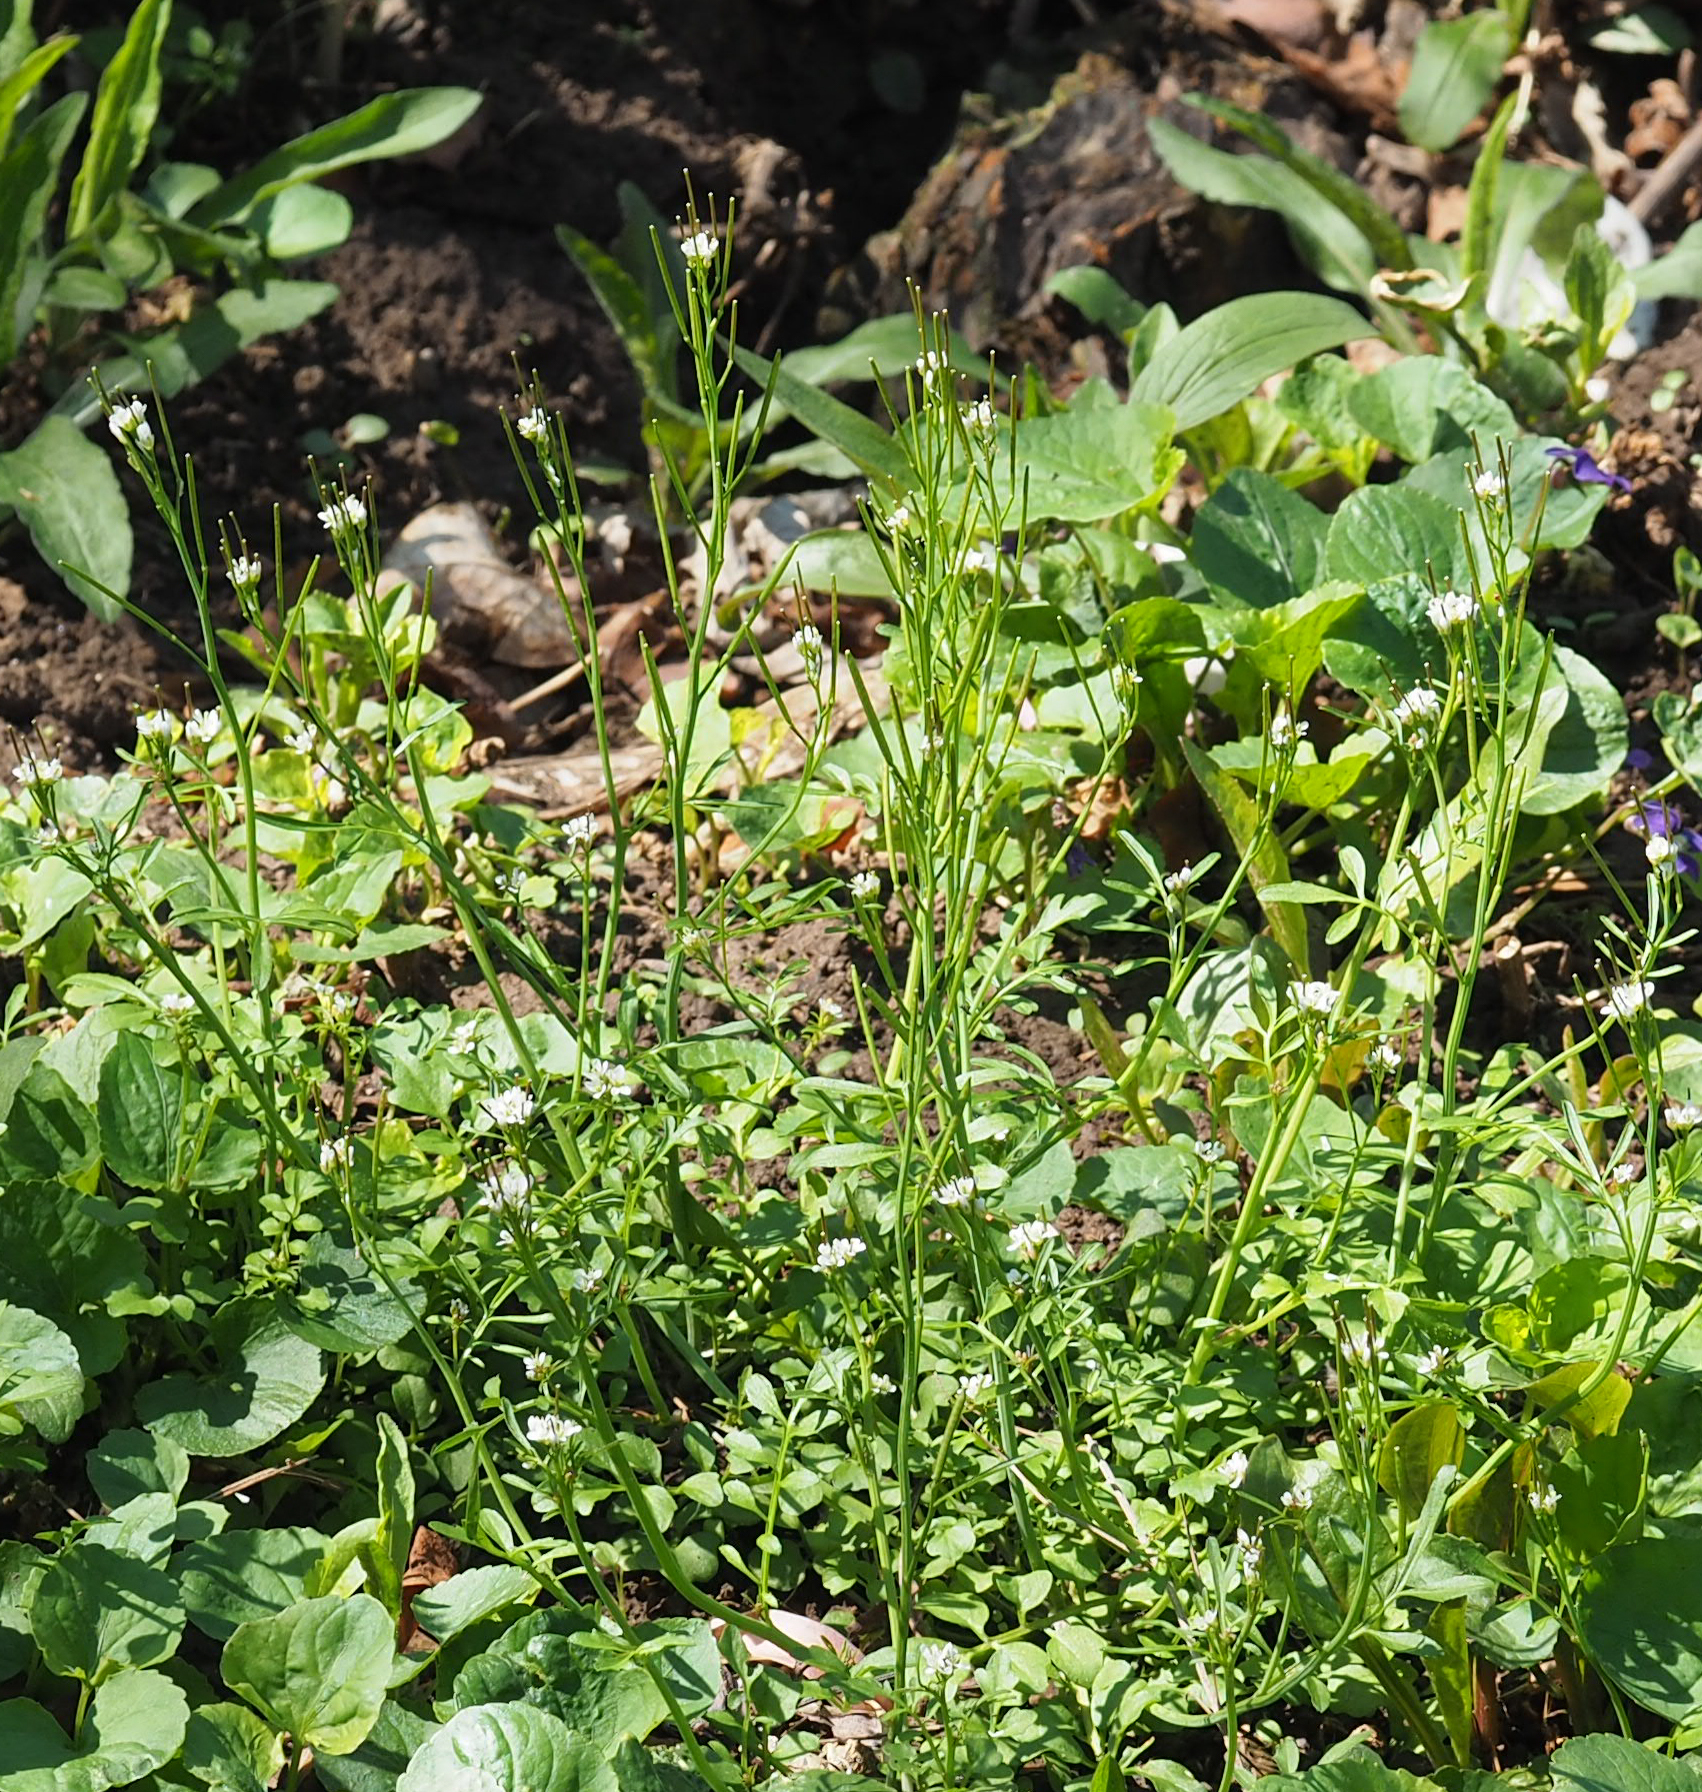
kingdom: Plantae
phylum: Tracheophyta
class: Magnoliopsida
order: Brassicales
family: Brassicaceae
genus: Cardamine
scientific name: Cardamine hirsuta
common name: Hairy bittercress
